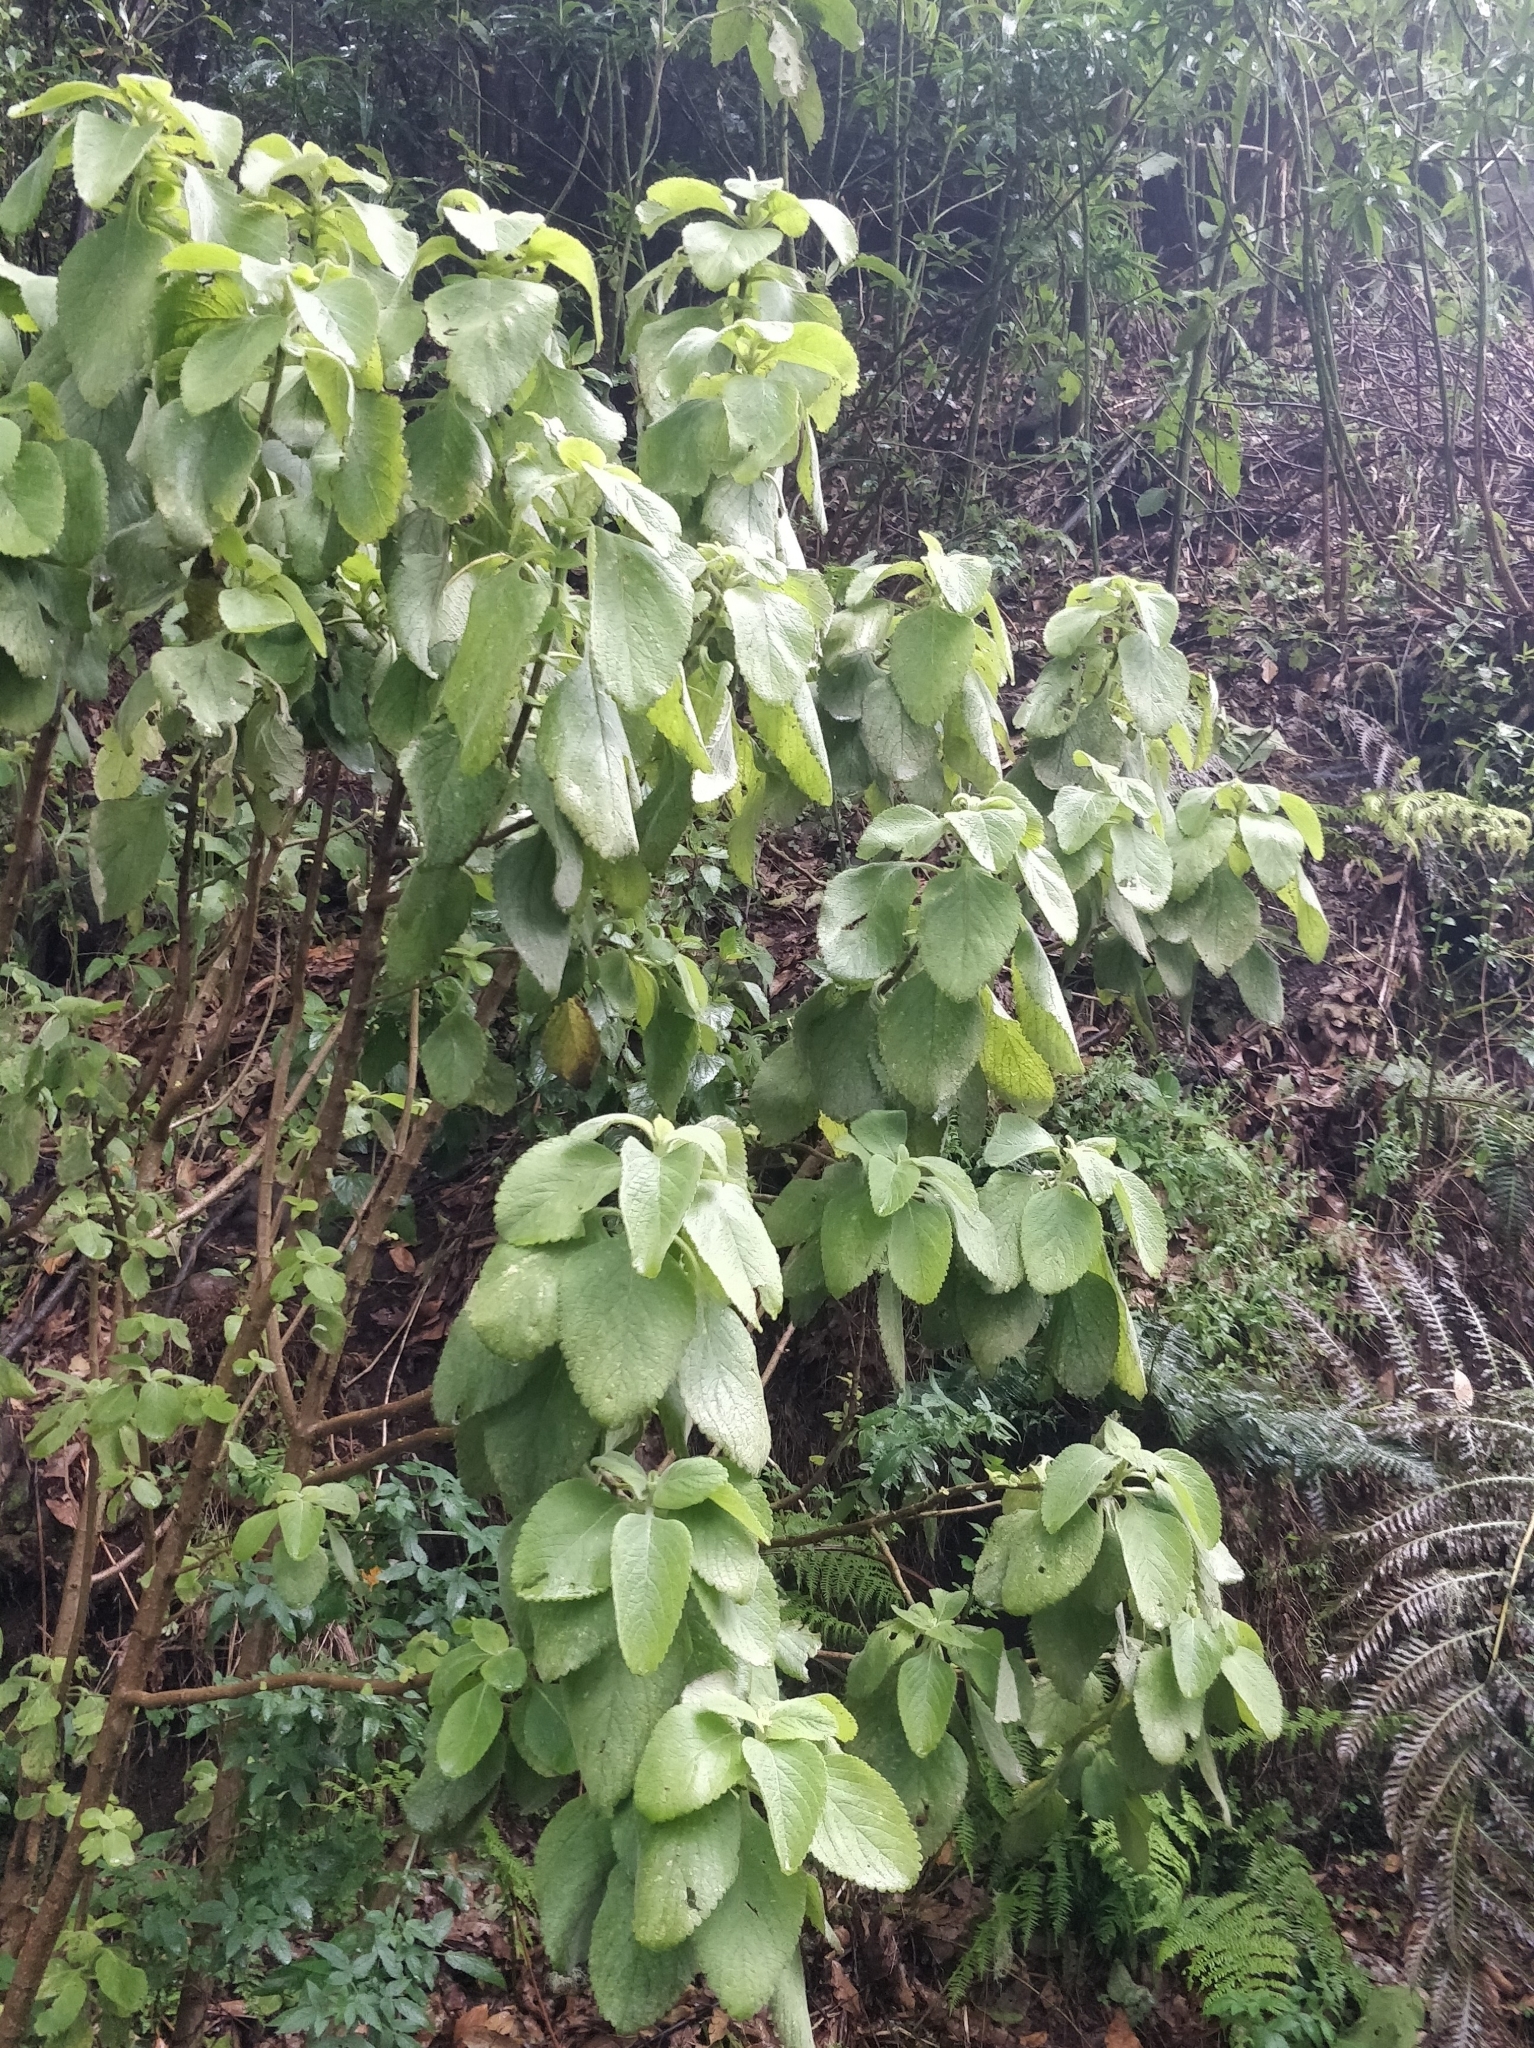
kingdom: Plantae
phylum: Tracheophyta
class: Magnoliopsida
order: Lamiales
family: Lamiaceae
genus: Coleus
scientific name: Coleus barbatus
